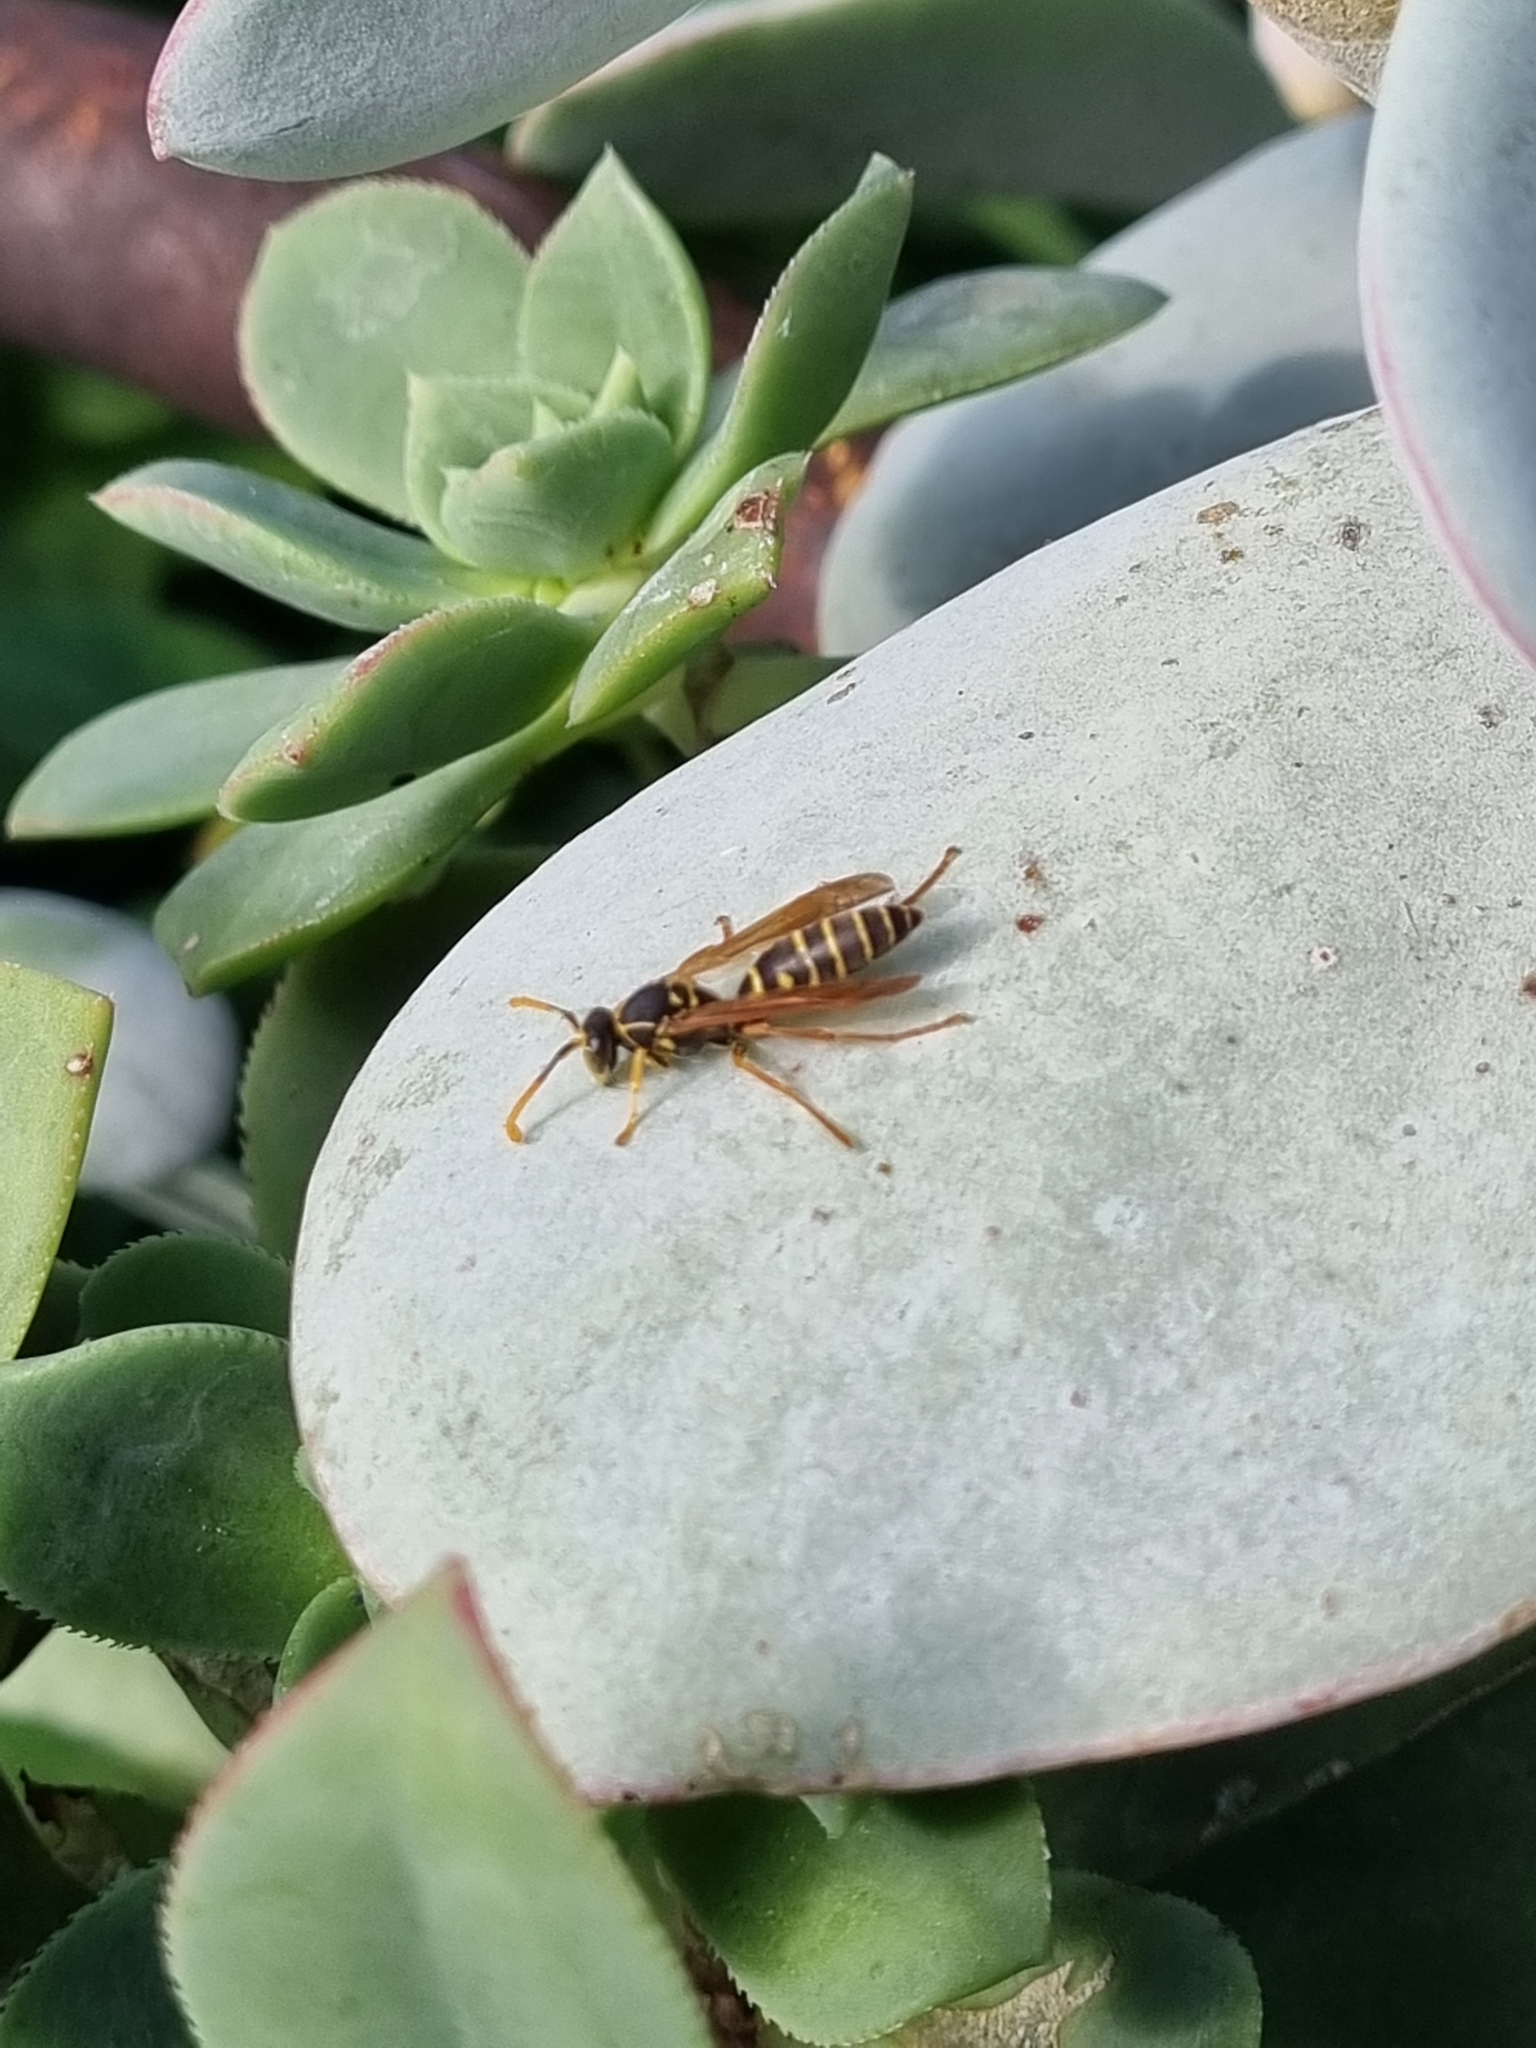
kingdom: Animalia
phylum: Arthropoda
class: Insecta
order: Hymenoptera
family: Eumenidae
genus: Polistes
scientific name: Polistes chinensis
